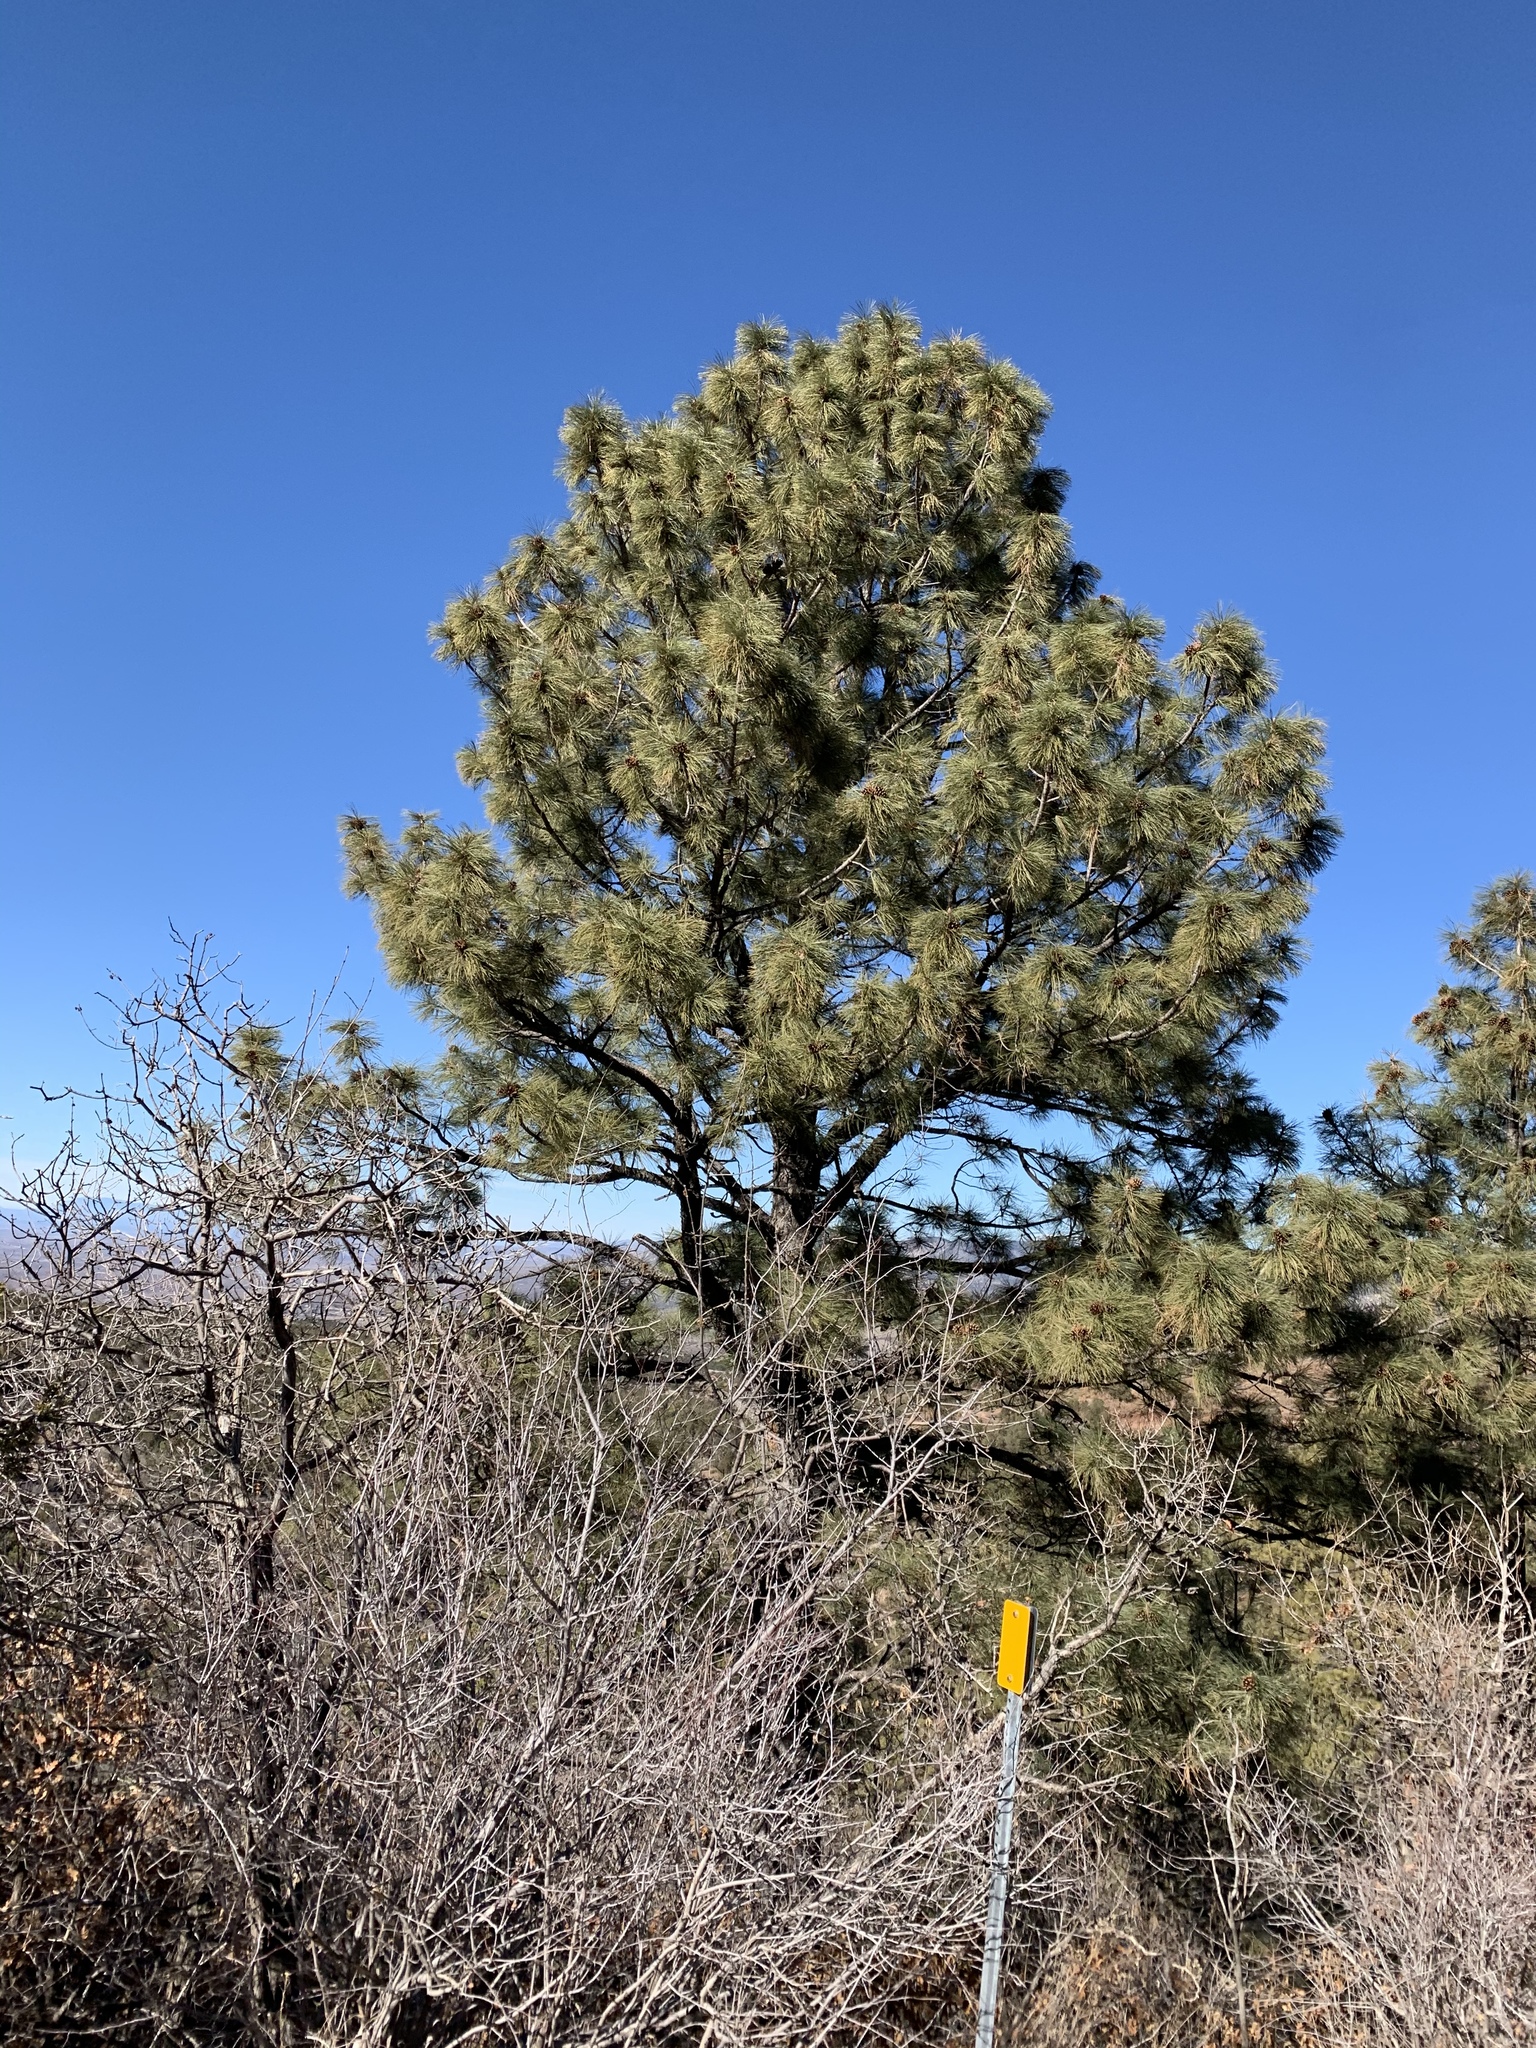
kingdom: Plantae
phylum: Tracheophyta
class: Pinopsida
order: Pinales
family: Pinaceae
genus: Pinus
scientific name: Pinus ponderosa
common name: Western yellow-pine
